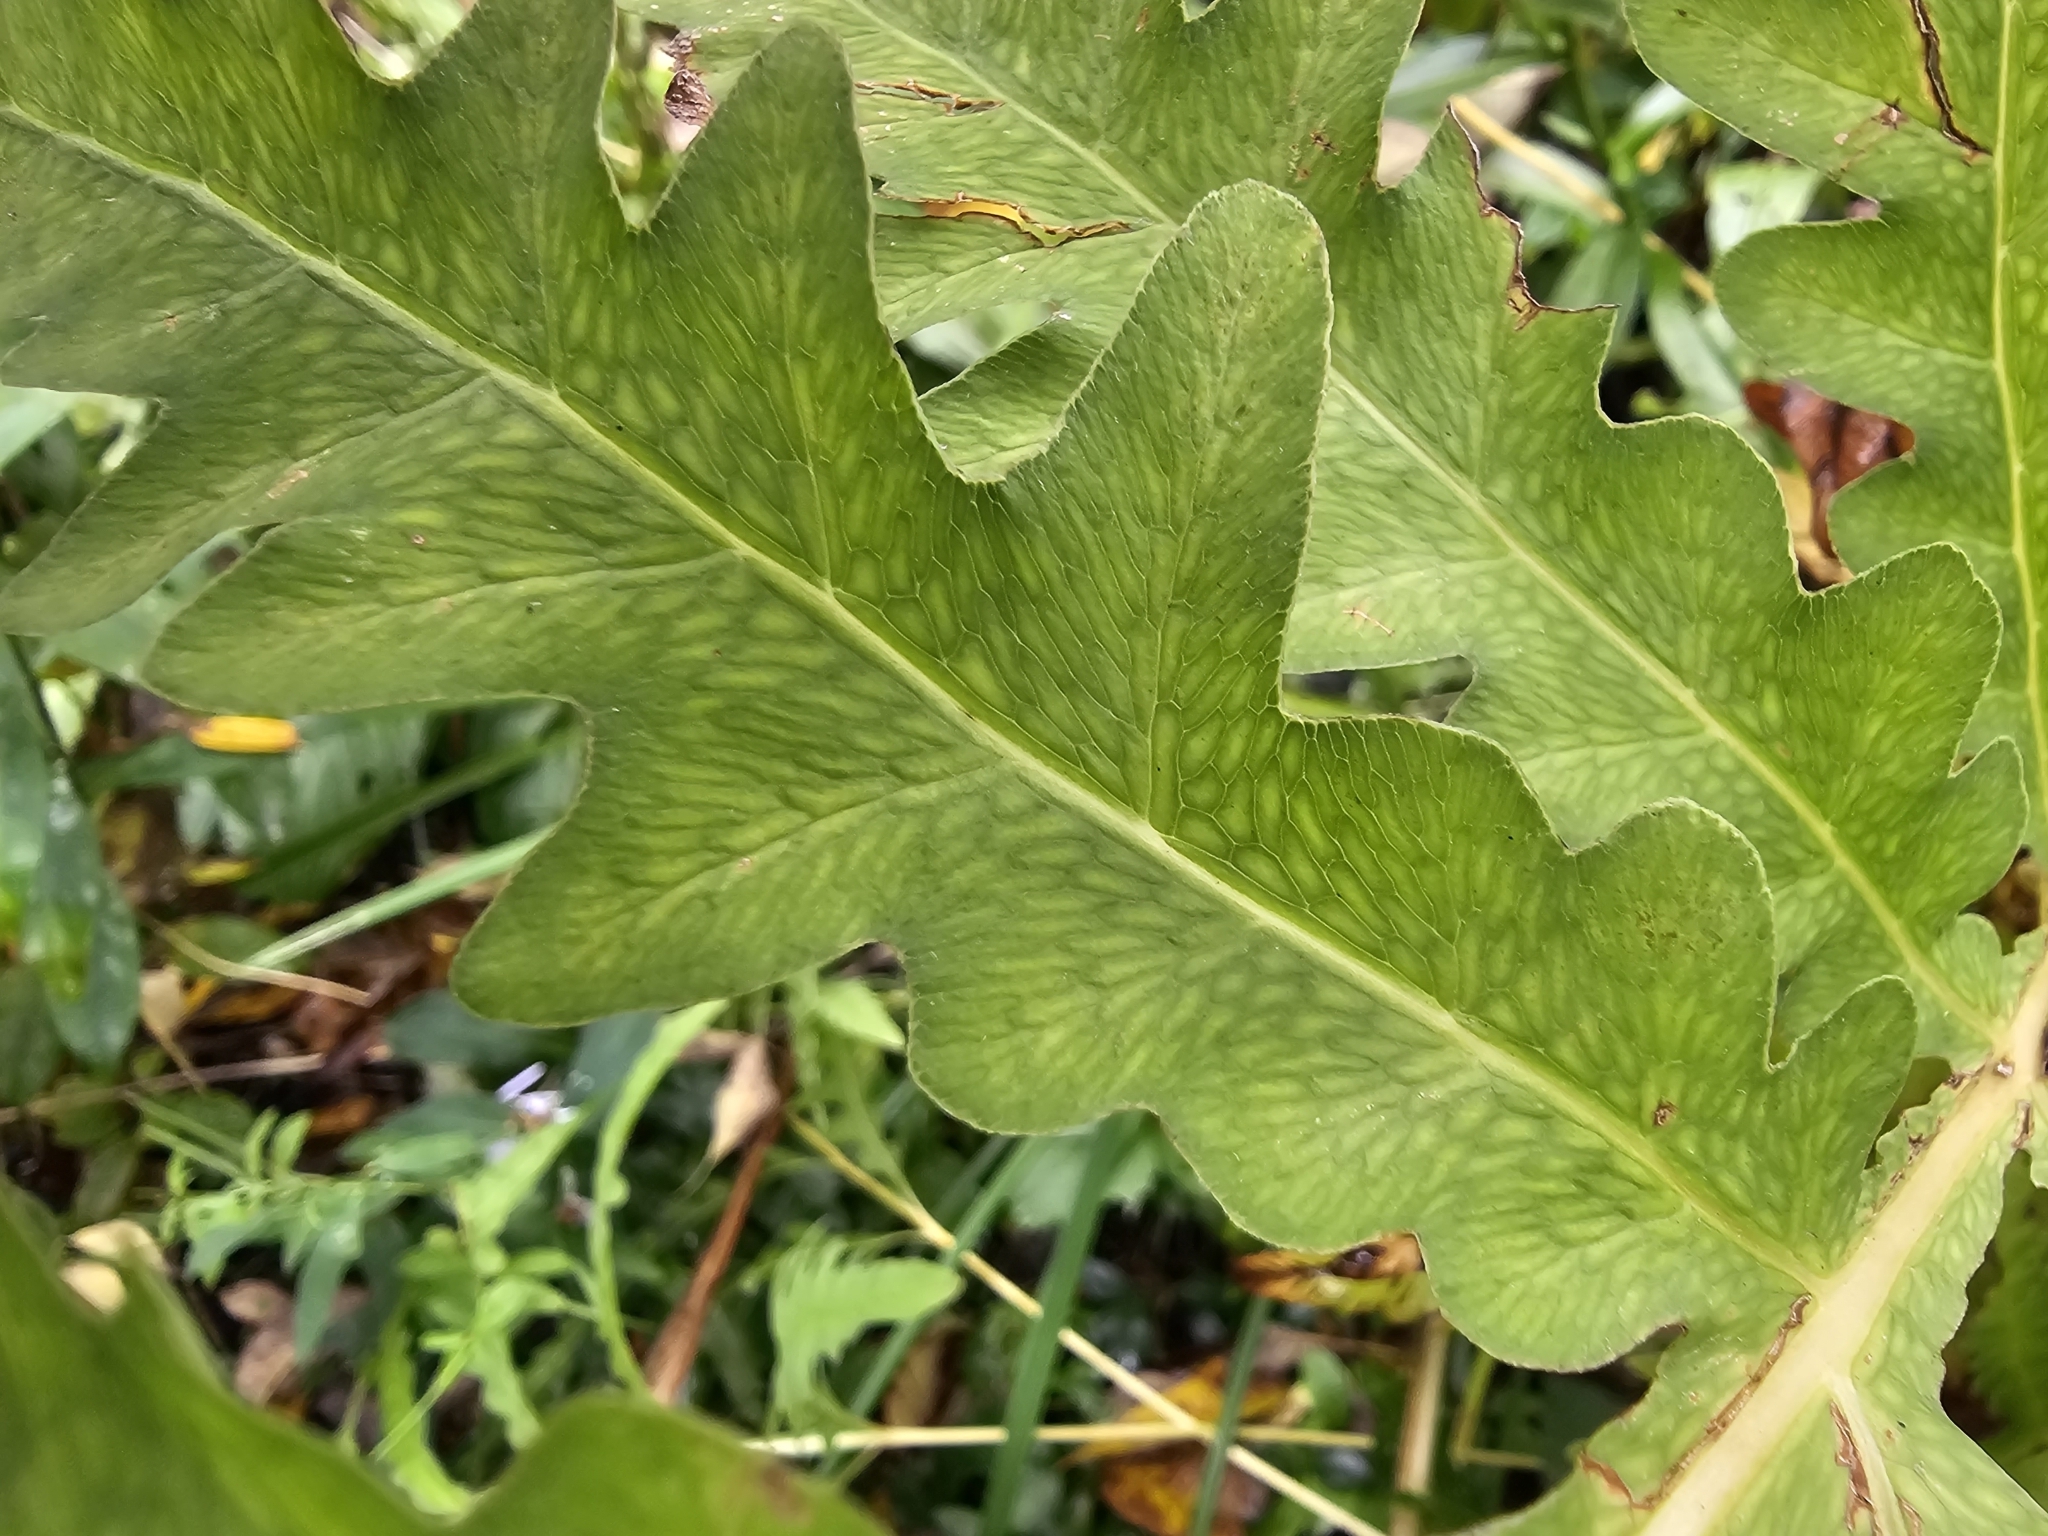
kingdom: Plantae
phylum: Tracheophyta
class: Polypodiopsida
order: Polypodiales
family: Onocleaceae
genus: Onoclea
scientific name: Onoclea sensibilis
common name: Sensitive fern
